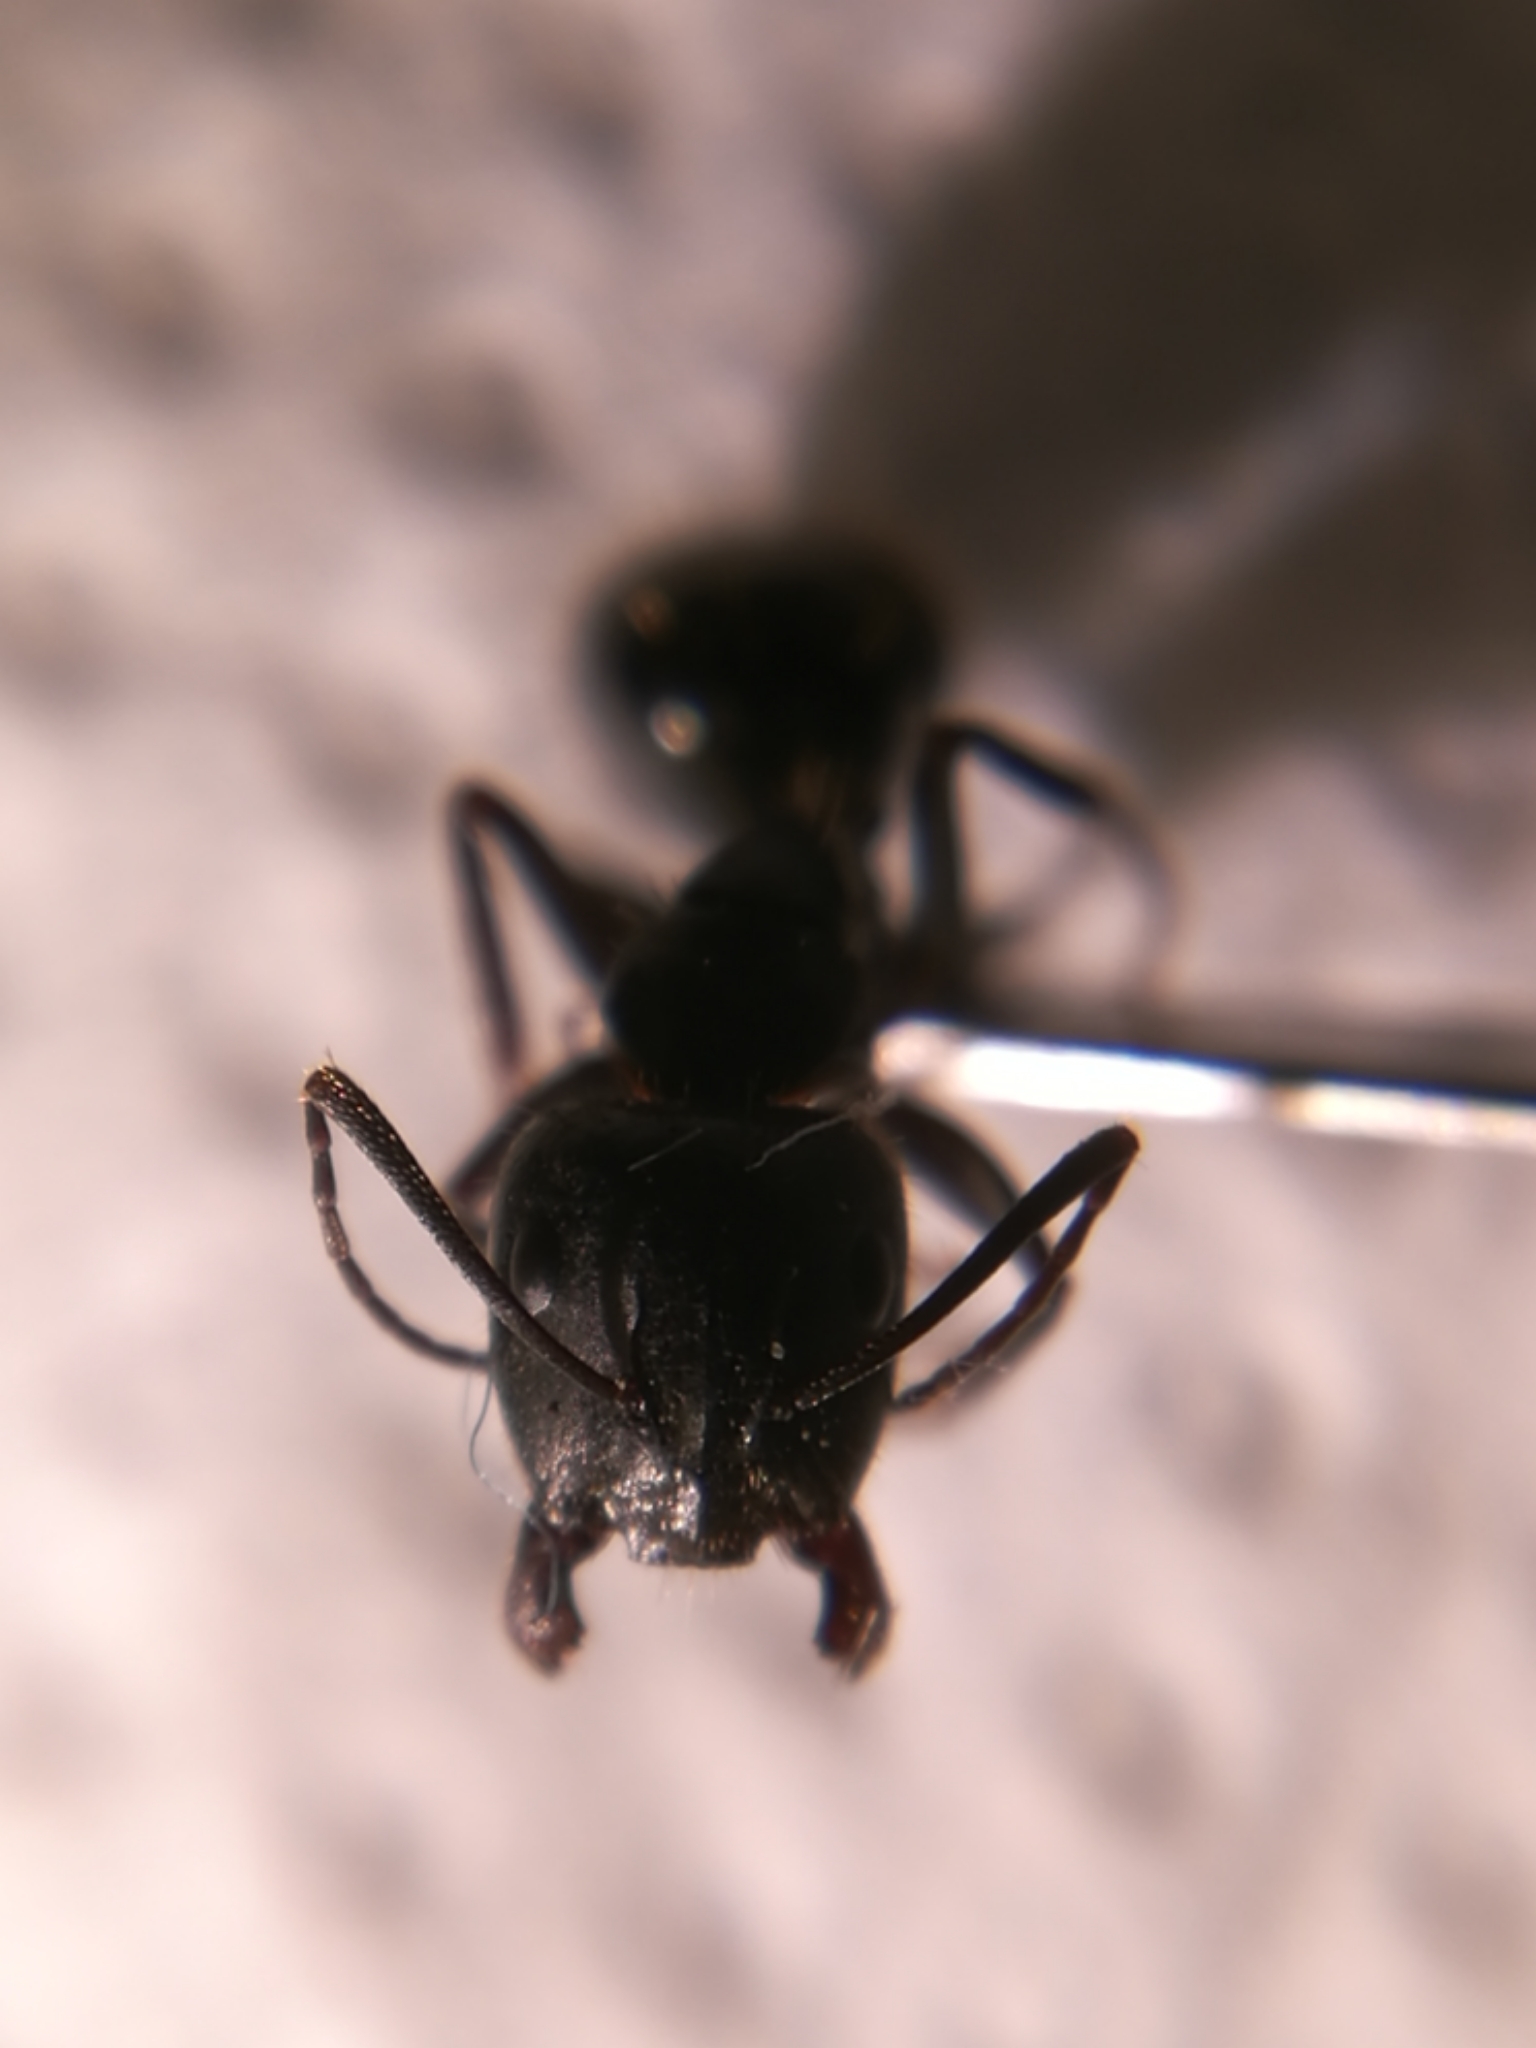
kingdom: Animalia
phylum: Arthropoda
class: Insecta
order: Hymenoptera
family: Formicidae
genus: Camponotus
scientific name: Camponotus aethiops
